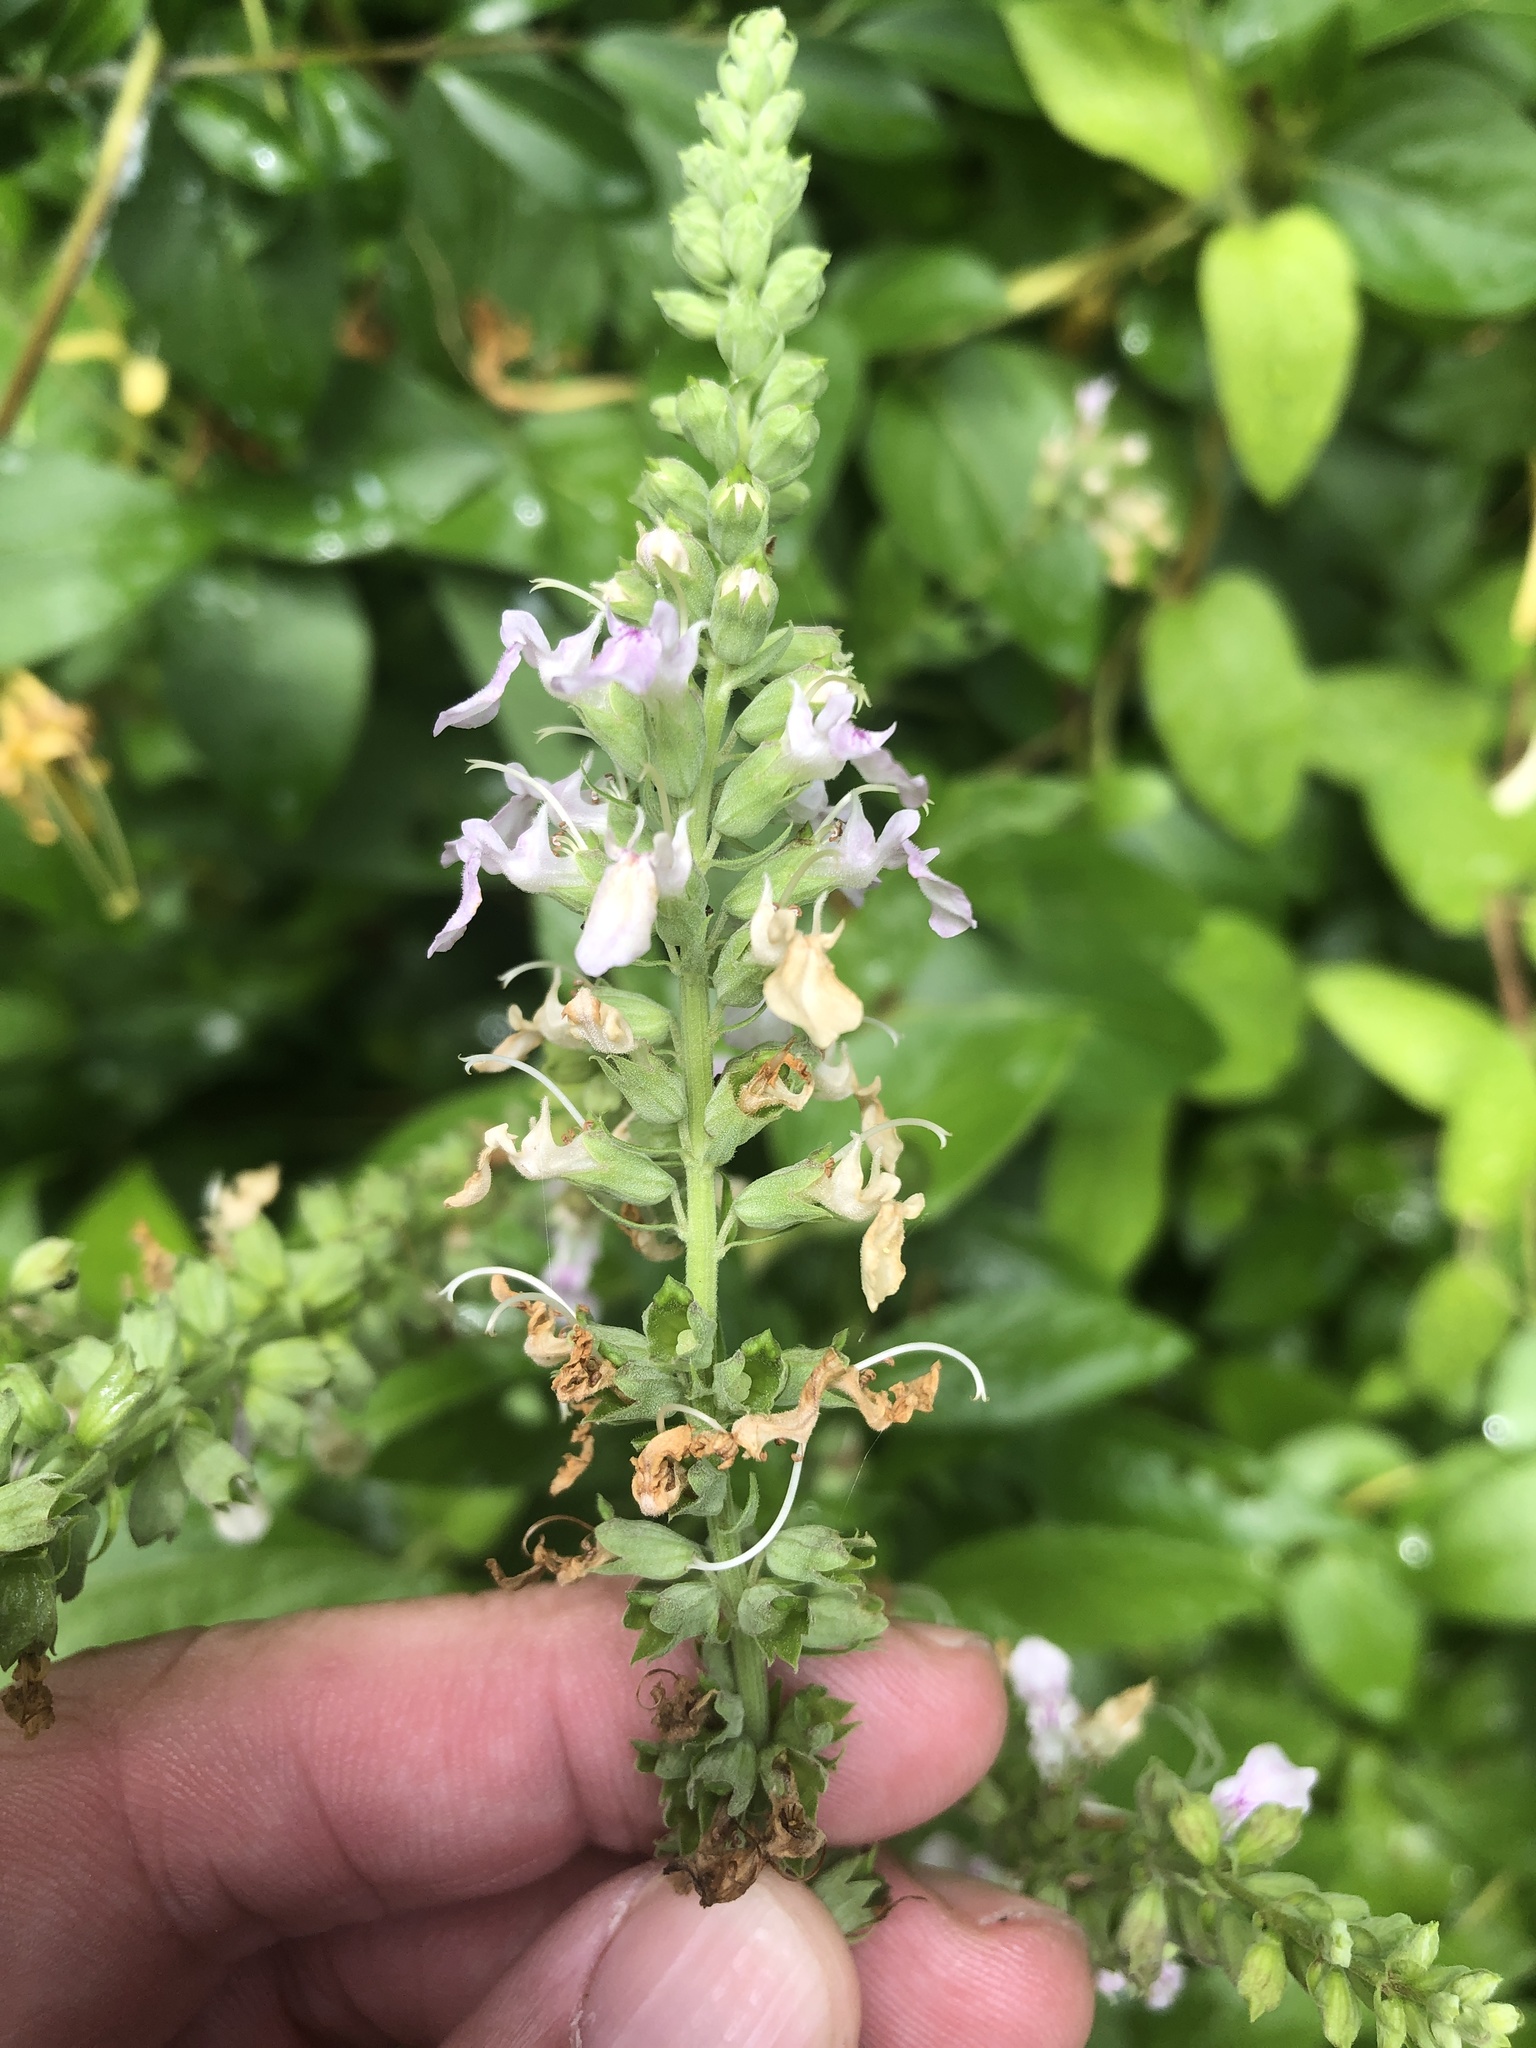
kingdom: Plantae
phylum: Tracheophyta
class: Magnoliopsida
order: Lamiales
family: Lamiaceae
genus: Teucrium
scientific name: Teucrium canadense
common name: American germander
